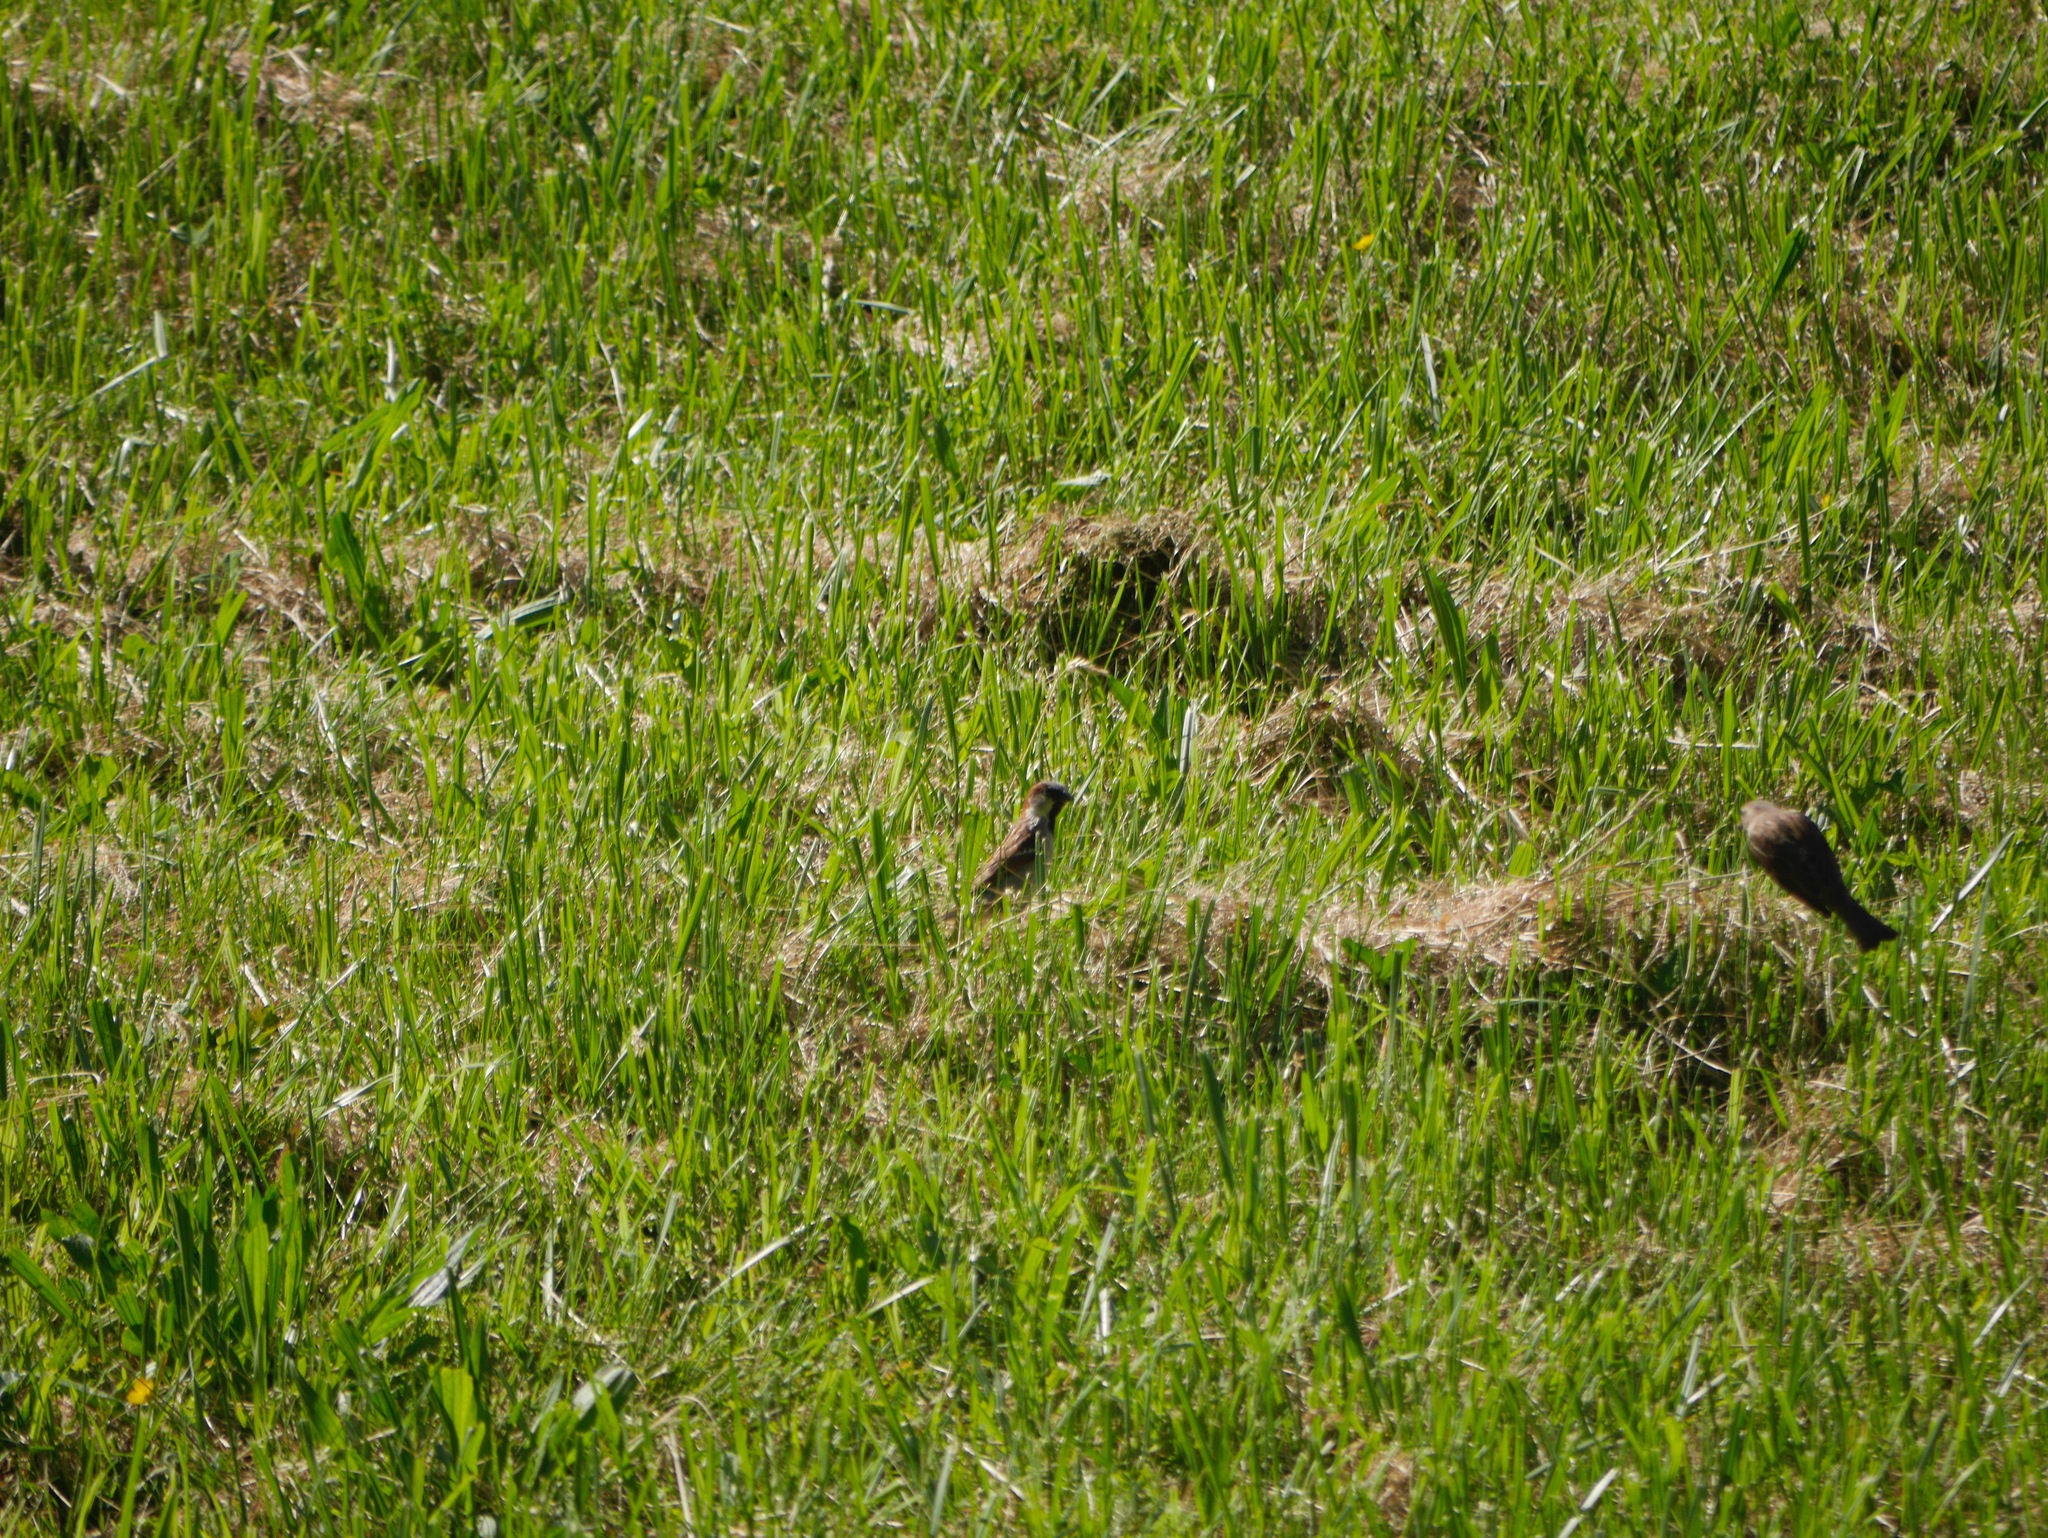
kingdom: Animalia
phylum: Chordata
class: Aves
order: Passeriformes
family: Passeridae
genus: Passer
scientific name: Passer domesticus
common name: House sparrow
